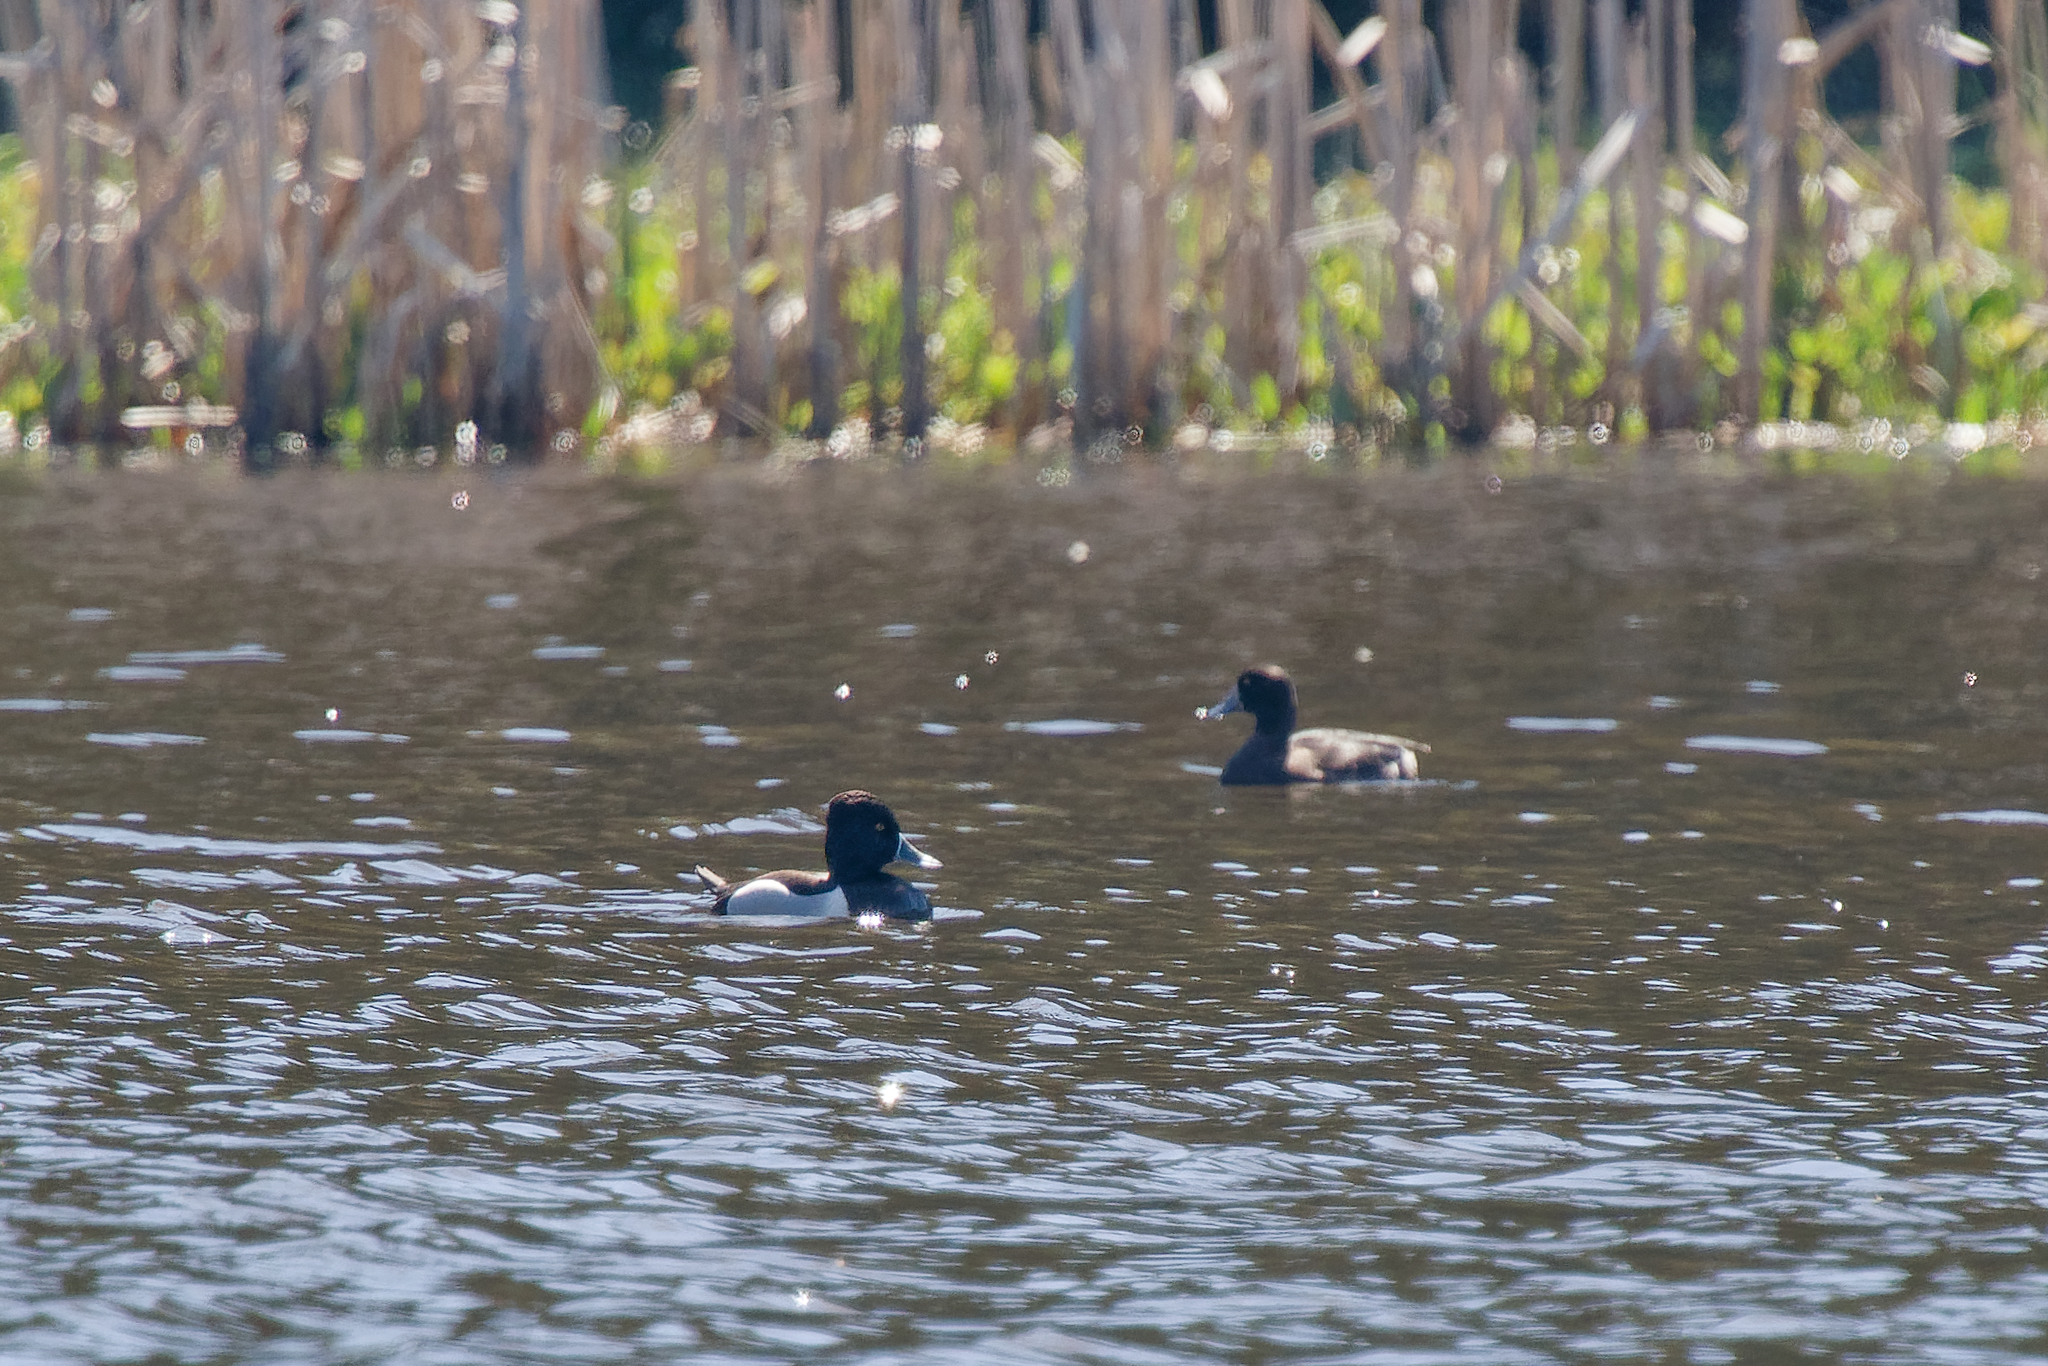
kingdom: Animalia
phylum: Chordata
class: Aves
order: Anseriformes
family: Anatidae
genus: Aythya
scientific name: Aythya collaris
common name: Ring-necked duck
